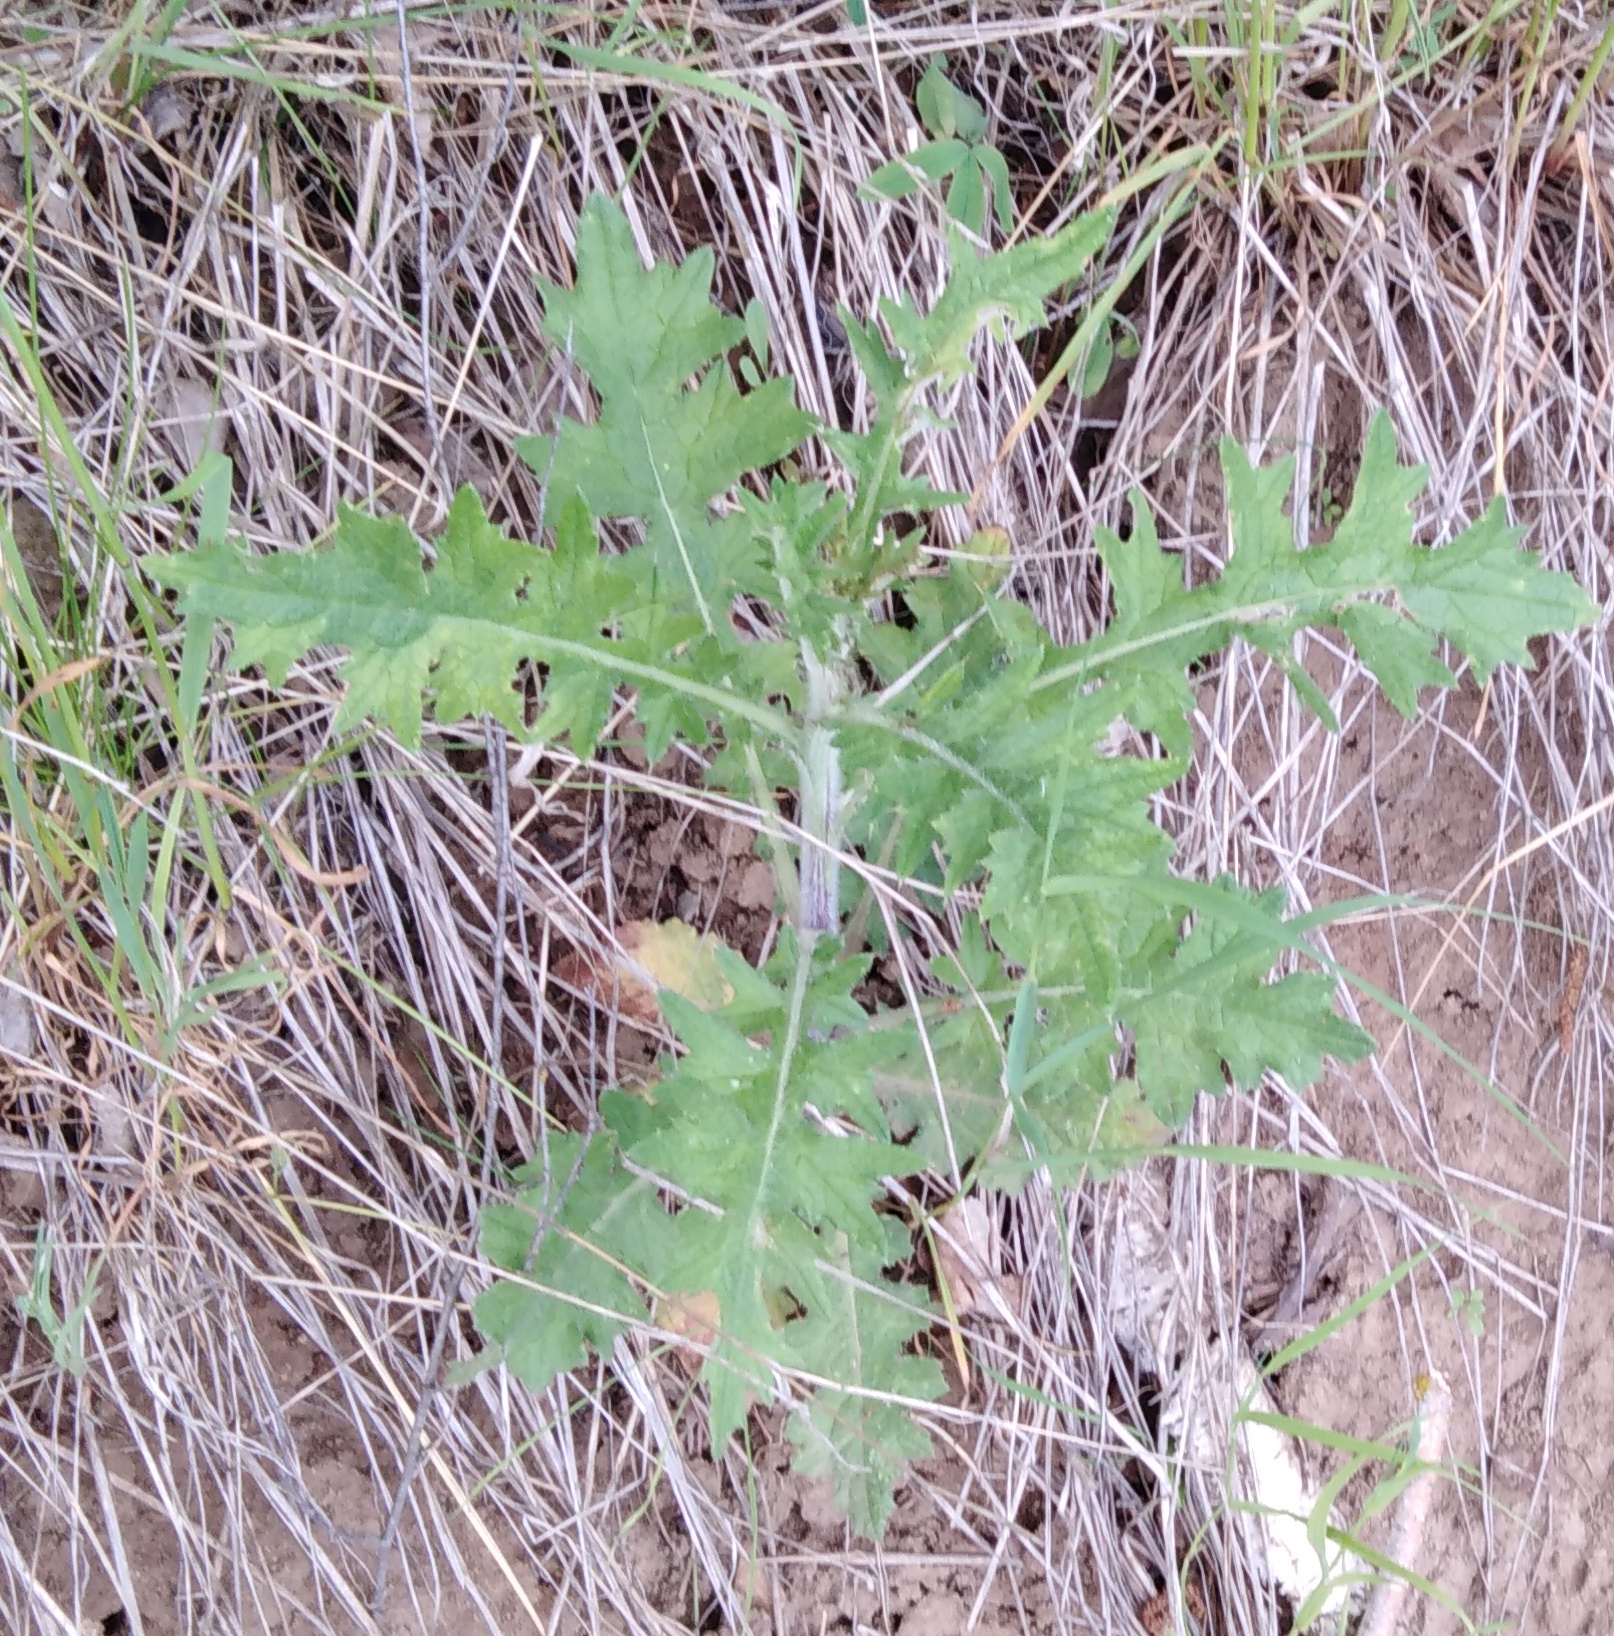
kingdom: Plantae
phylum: Tracheophyta
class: Magnoliopsida
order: Asterales
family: Asteraceae
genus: Cirsium
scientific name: Cirsium vulgare
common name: Bull thistle
